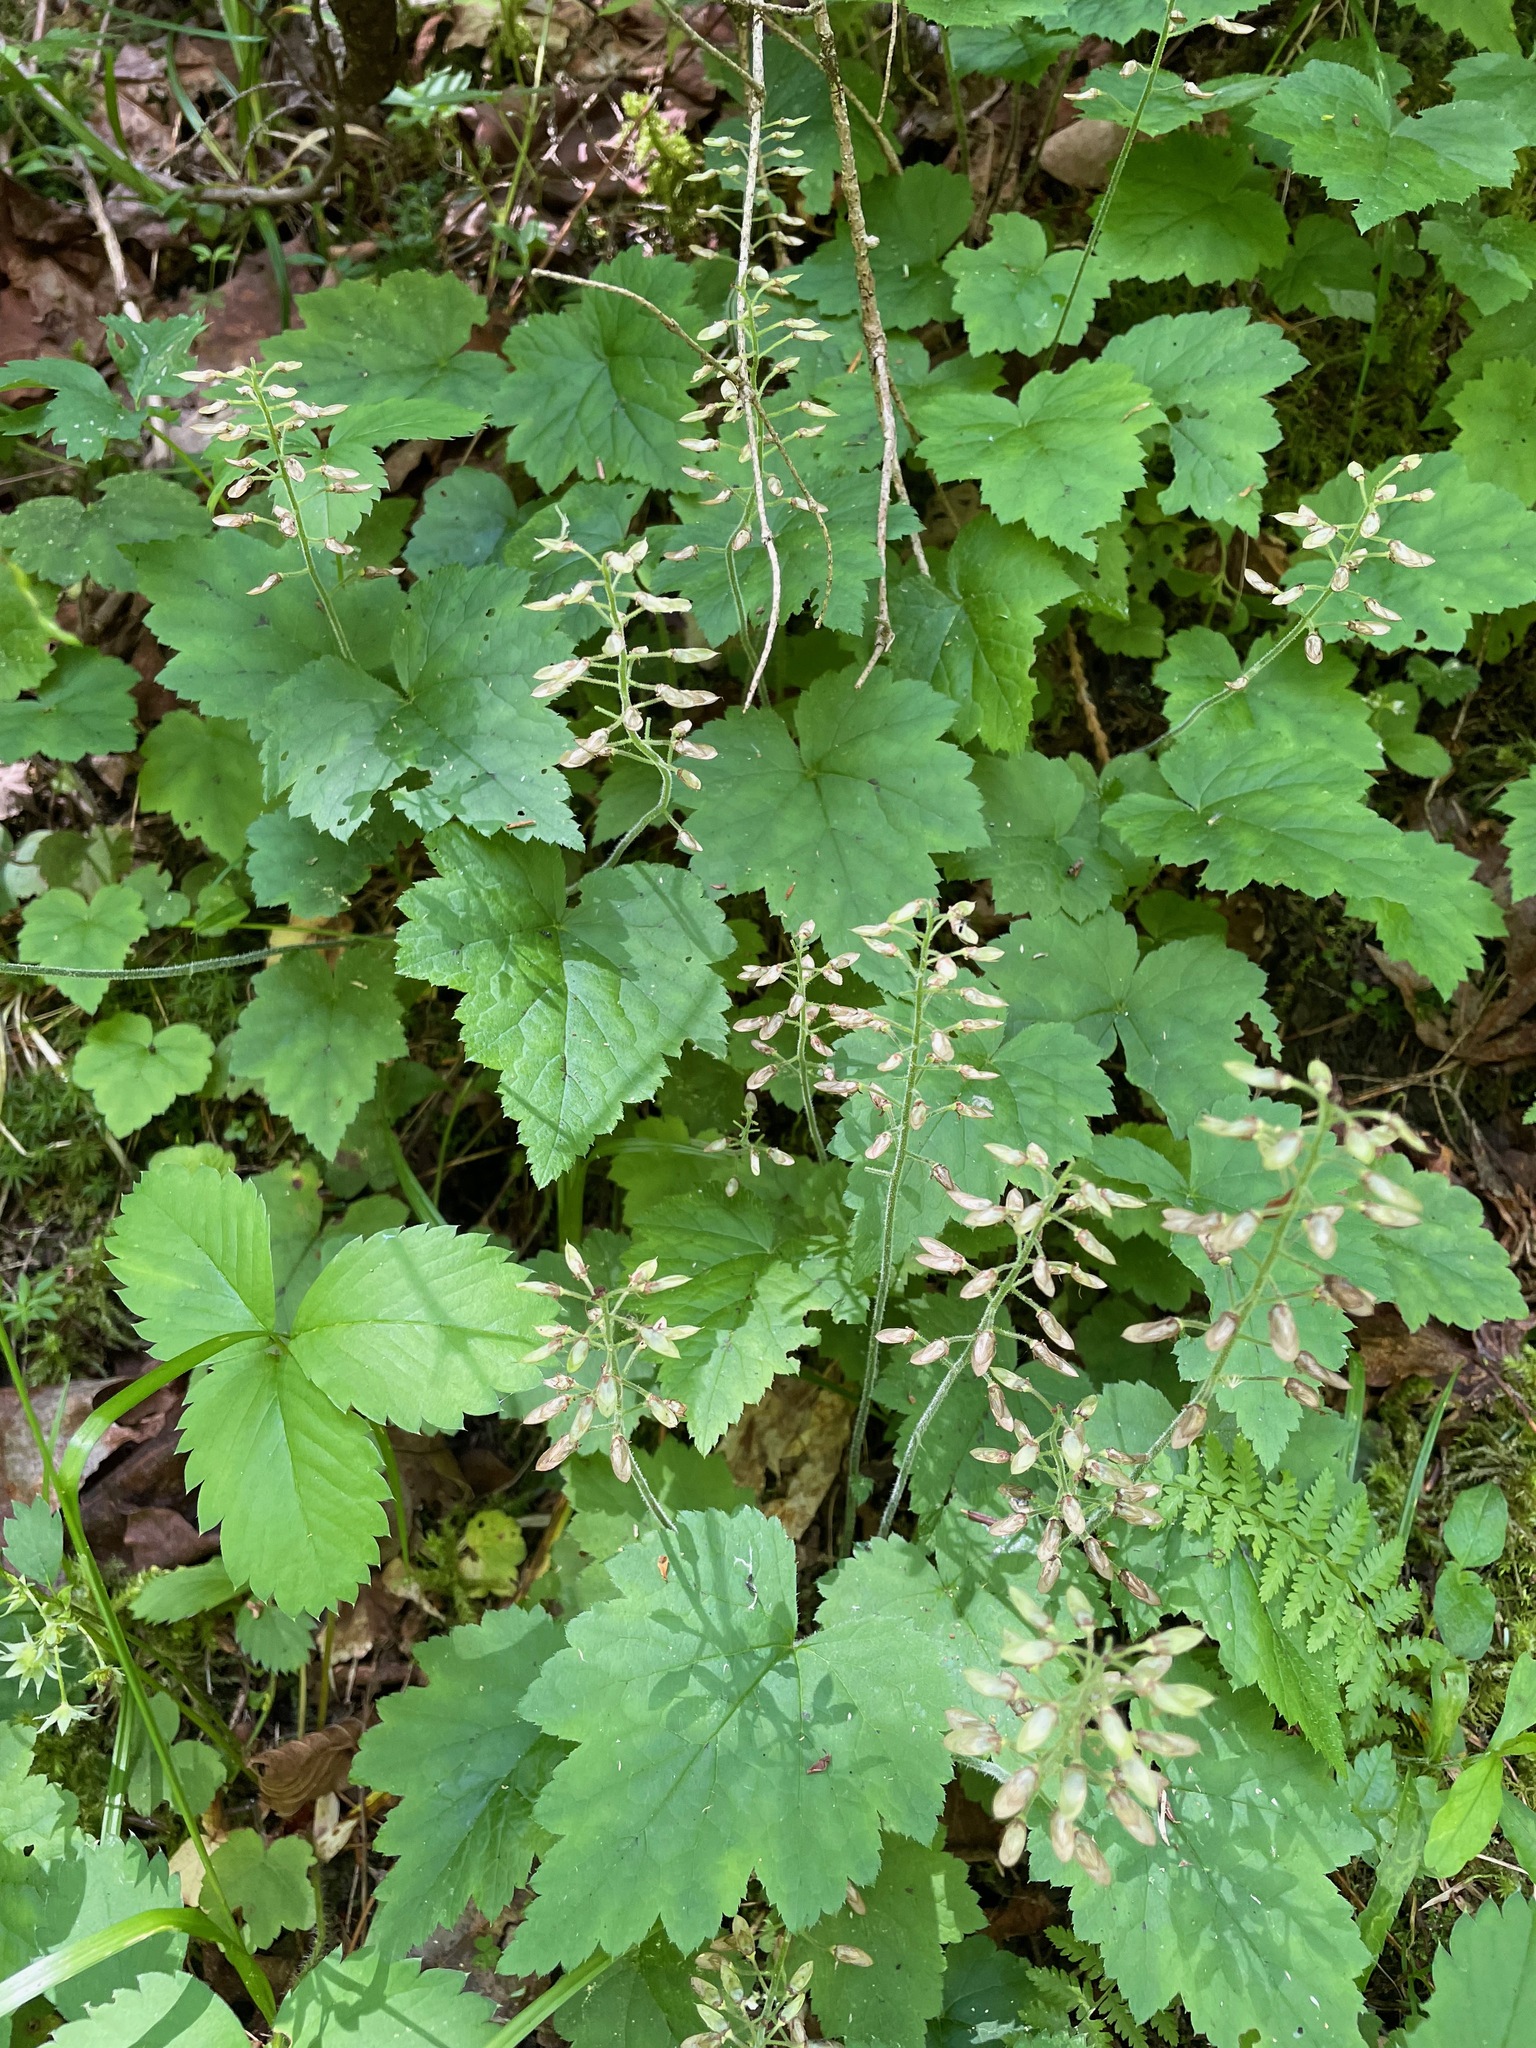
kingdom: Plantae
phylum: Tracheophyta
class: Magnoliopsida
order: Saxifragales
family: Saxifragaceae
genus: Tiarella
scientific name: Tiarella stolonifera
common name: Stoloniferous foamflower
